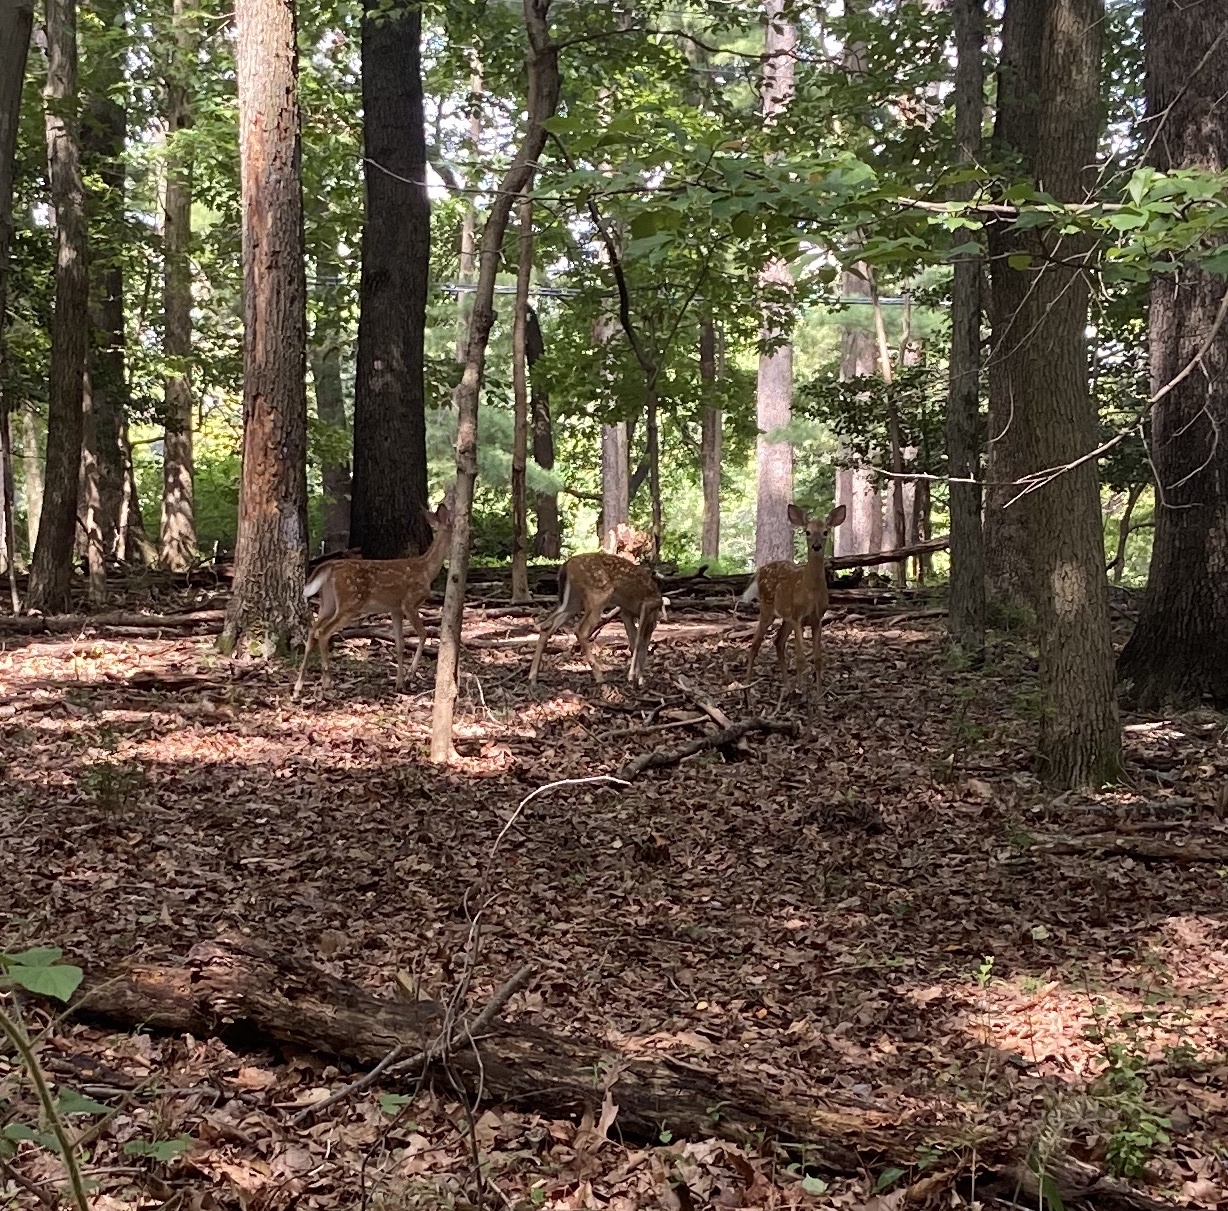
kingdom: Animalia
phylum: Chordata
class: Mammalia
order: Artiodactyla
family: Cervidae
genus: Odocoileus
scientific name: Odocoileus virginianus
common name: White-tailed deer
